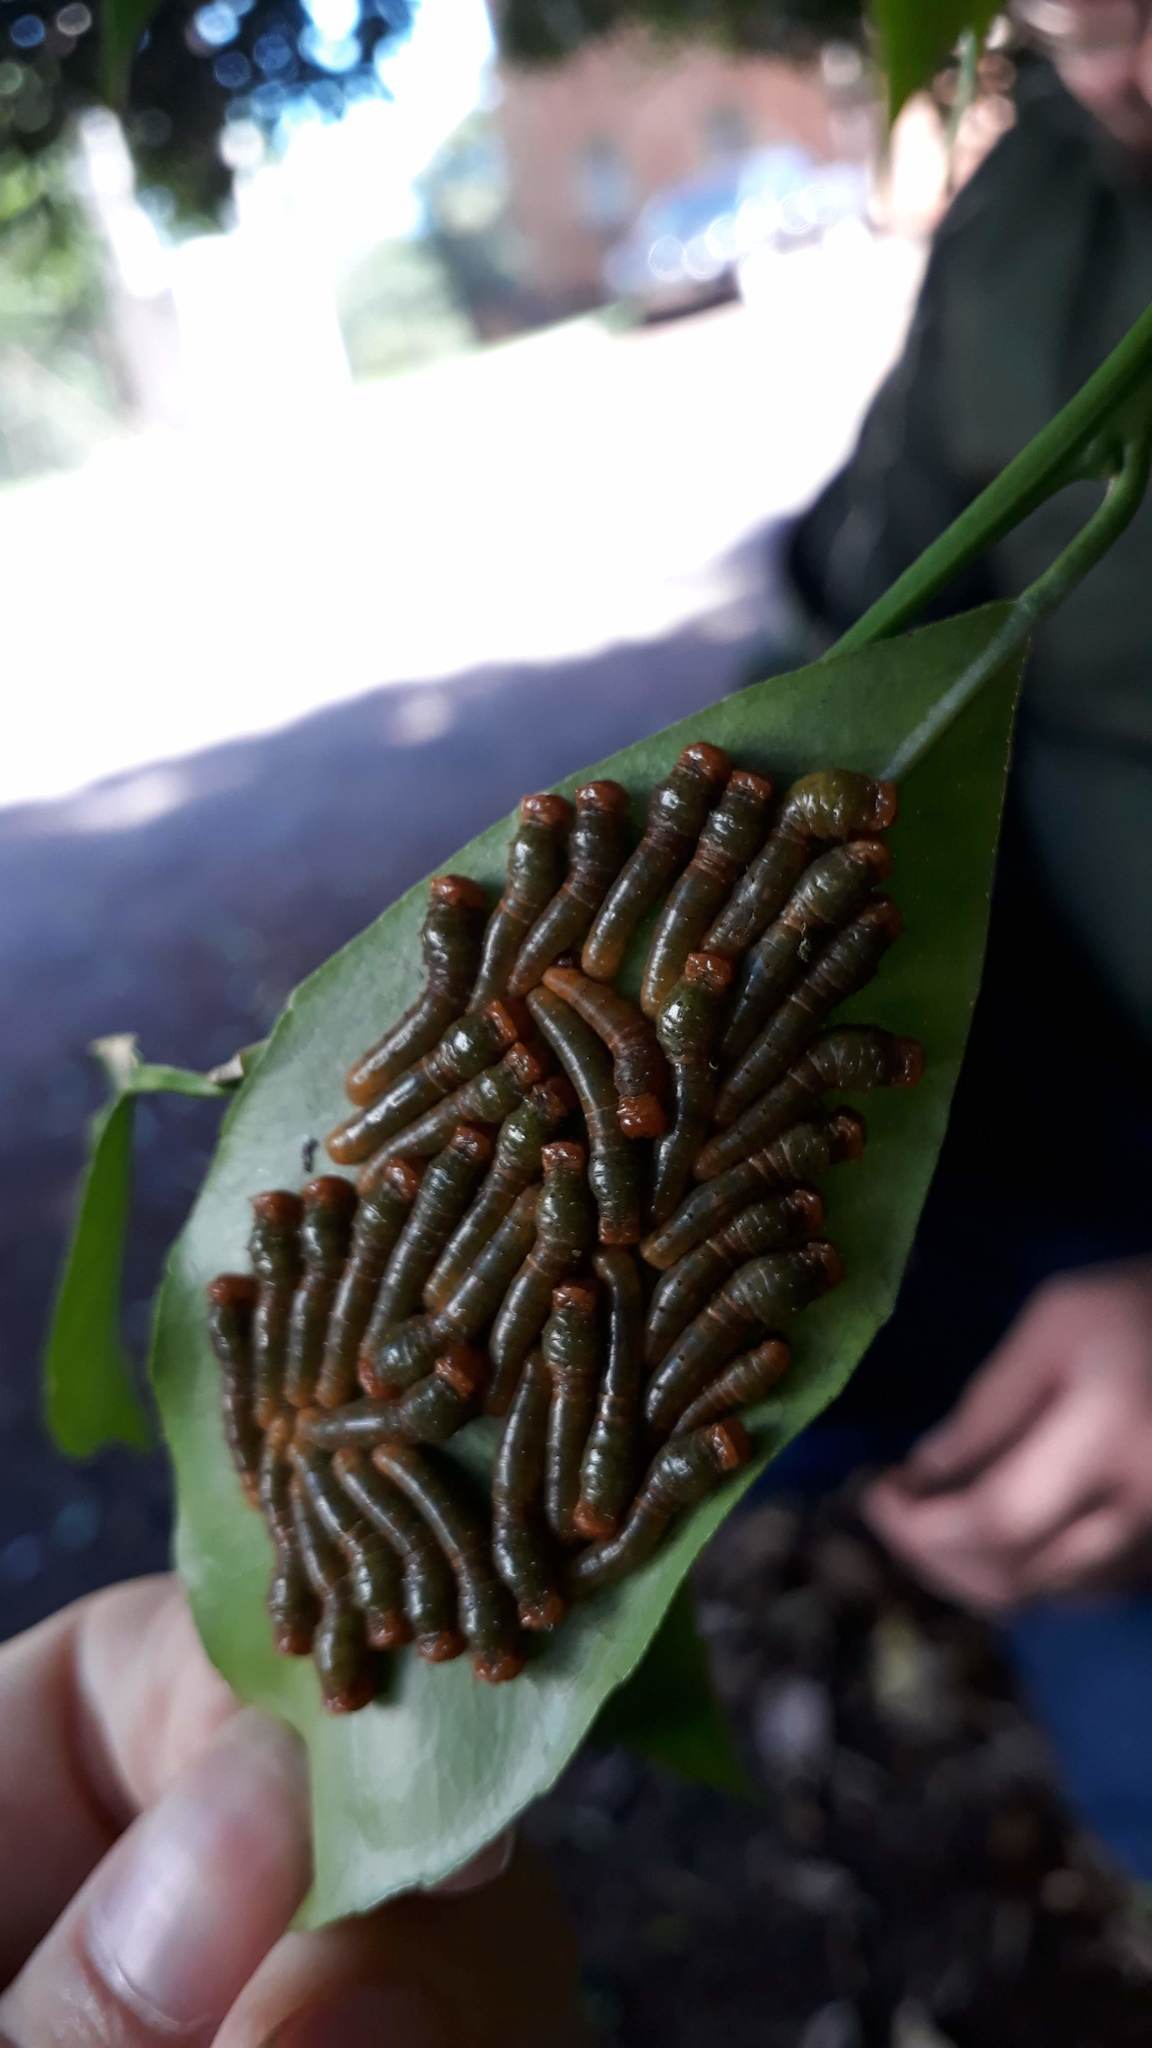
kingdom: Animalia
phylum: Arthropoda
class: Insecta
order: Lepidoptera
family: Papilionidae
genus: Papilio
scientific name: Papilio anchisiades
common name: Idaes swallowtail
